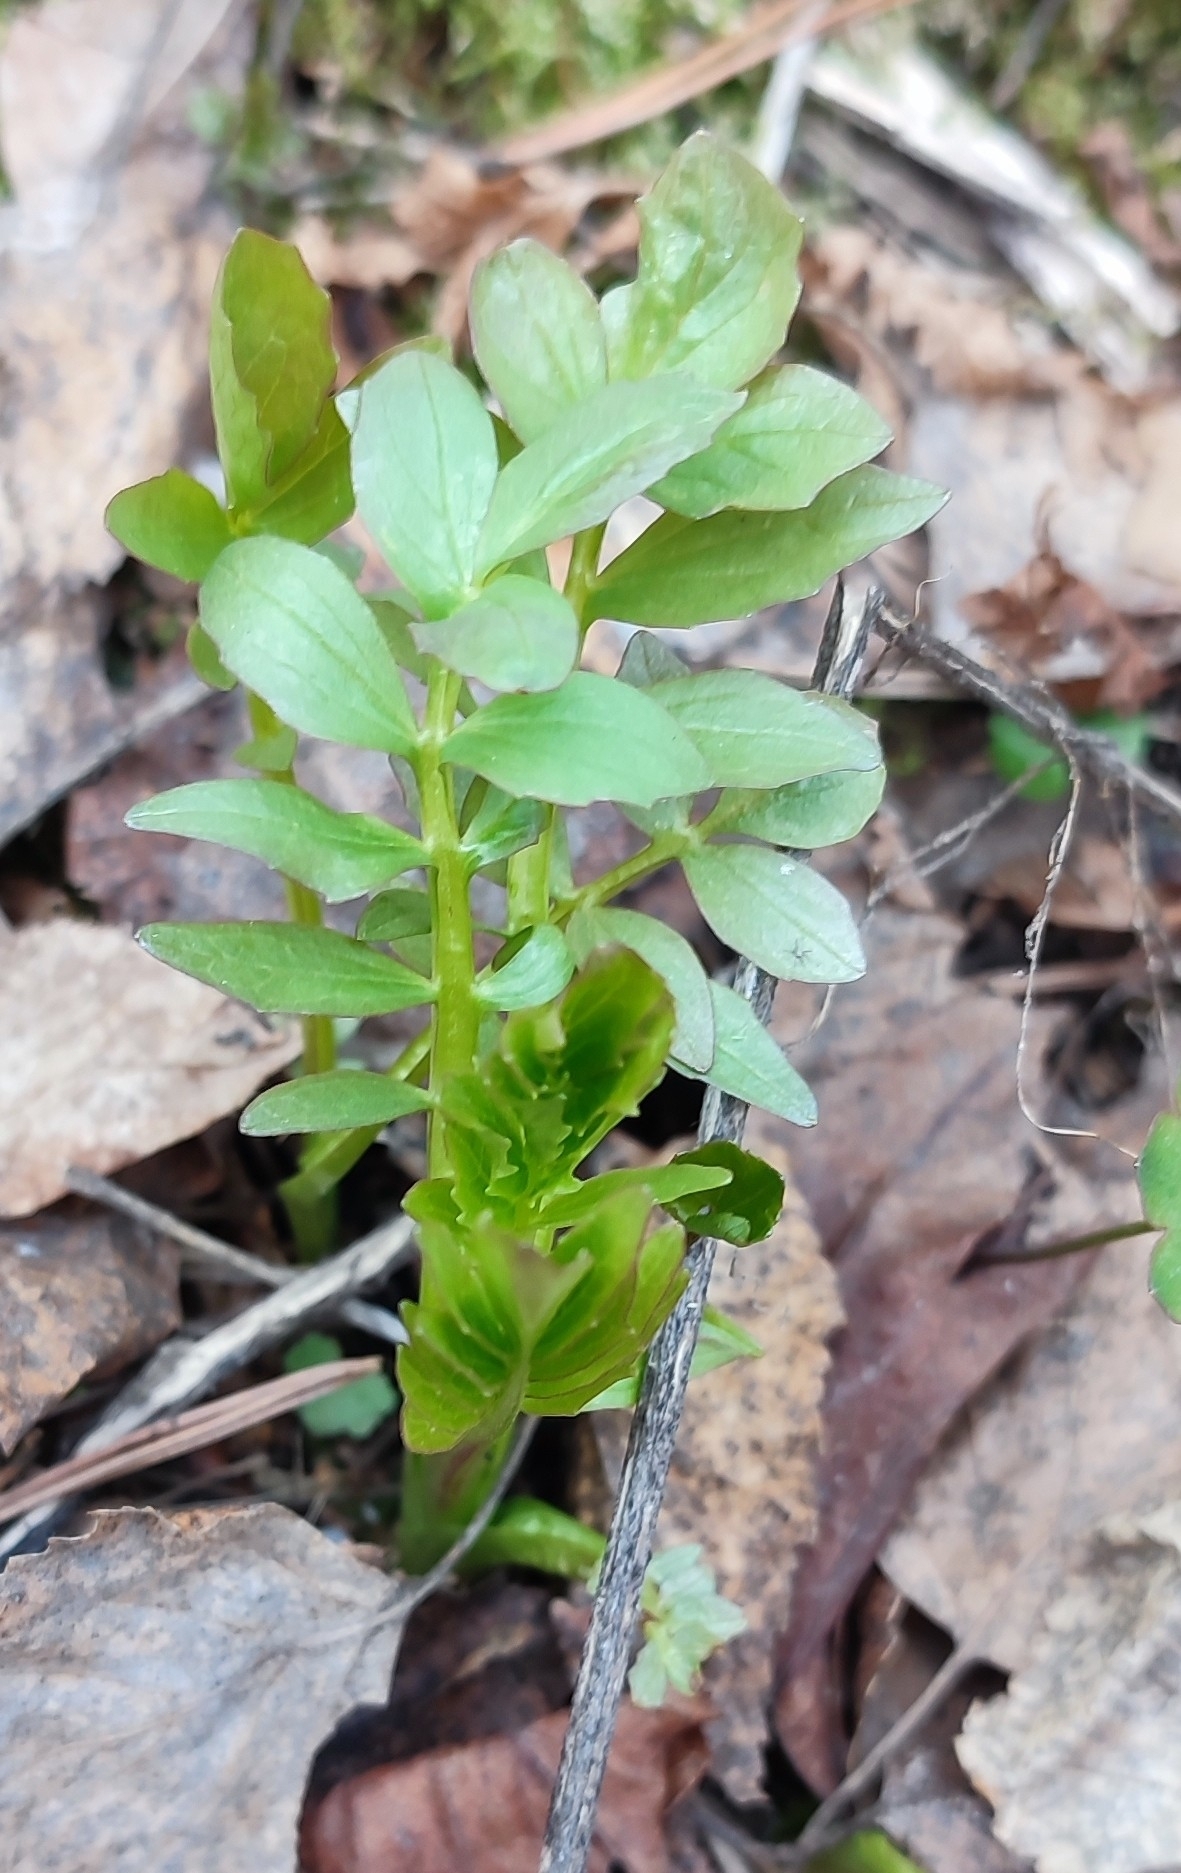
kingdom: Plantae
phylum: Tracheophyta
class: Magnoliopsida
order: Dipsacales
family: Caprifoliaceae
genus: Valeriana
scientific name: Valeriana wolgensis
